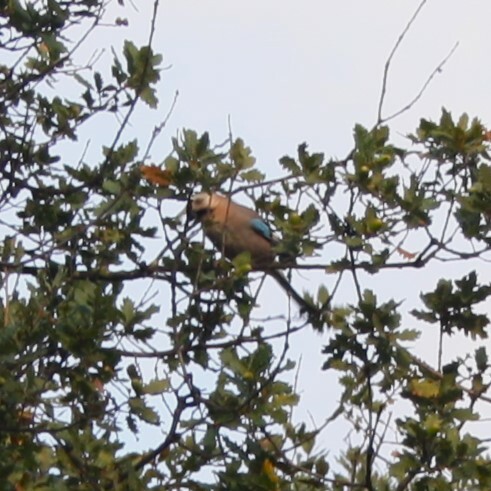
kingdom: Animalia
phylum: Chordata
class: Aves
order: Passeriformes
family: Corvidae
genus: Garrulus
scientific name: Garrulus glandarius
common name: Eurasian jay
